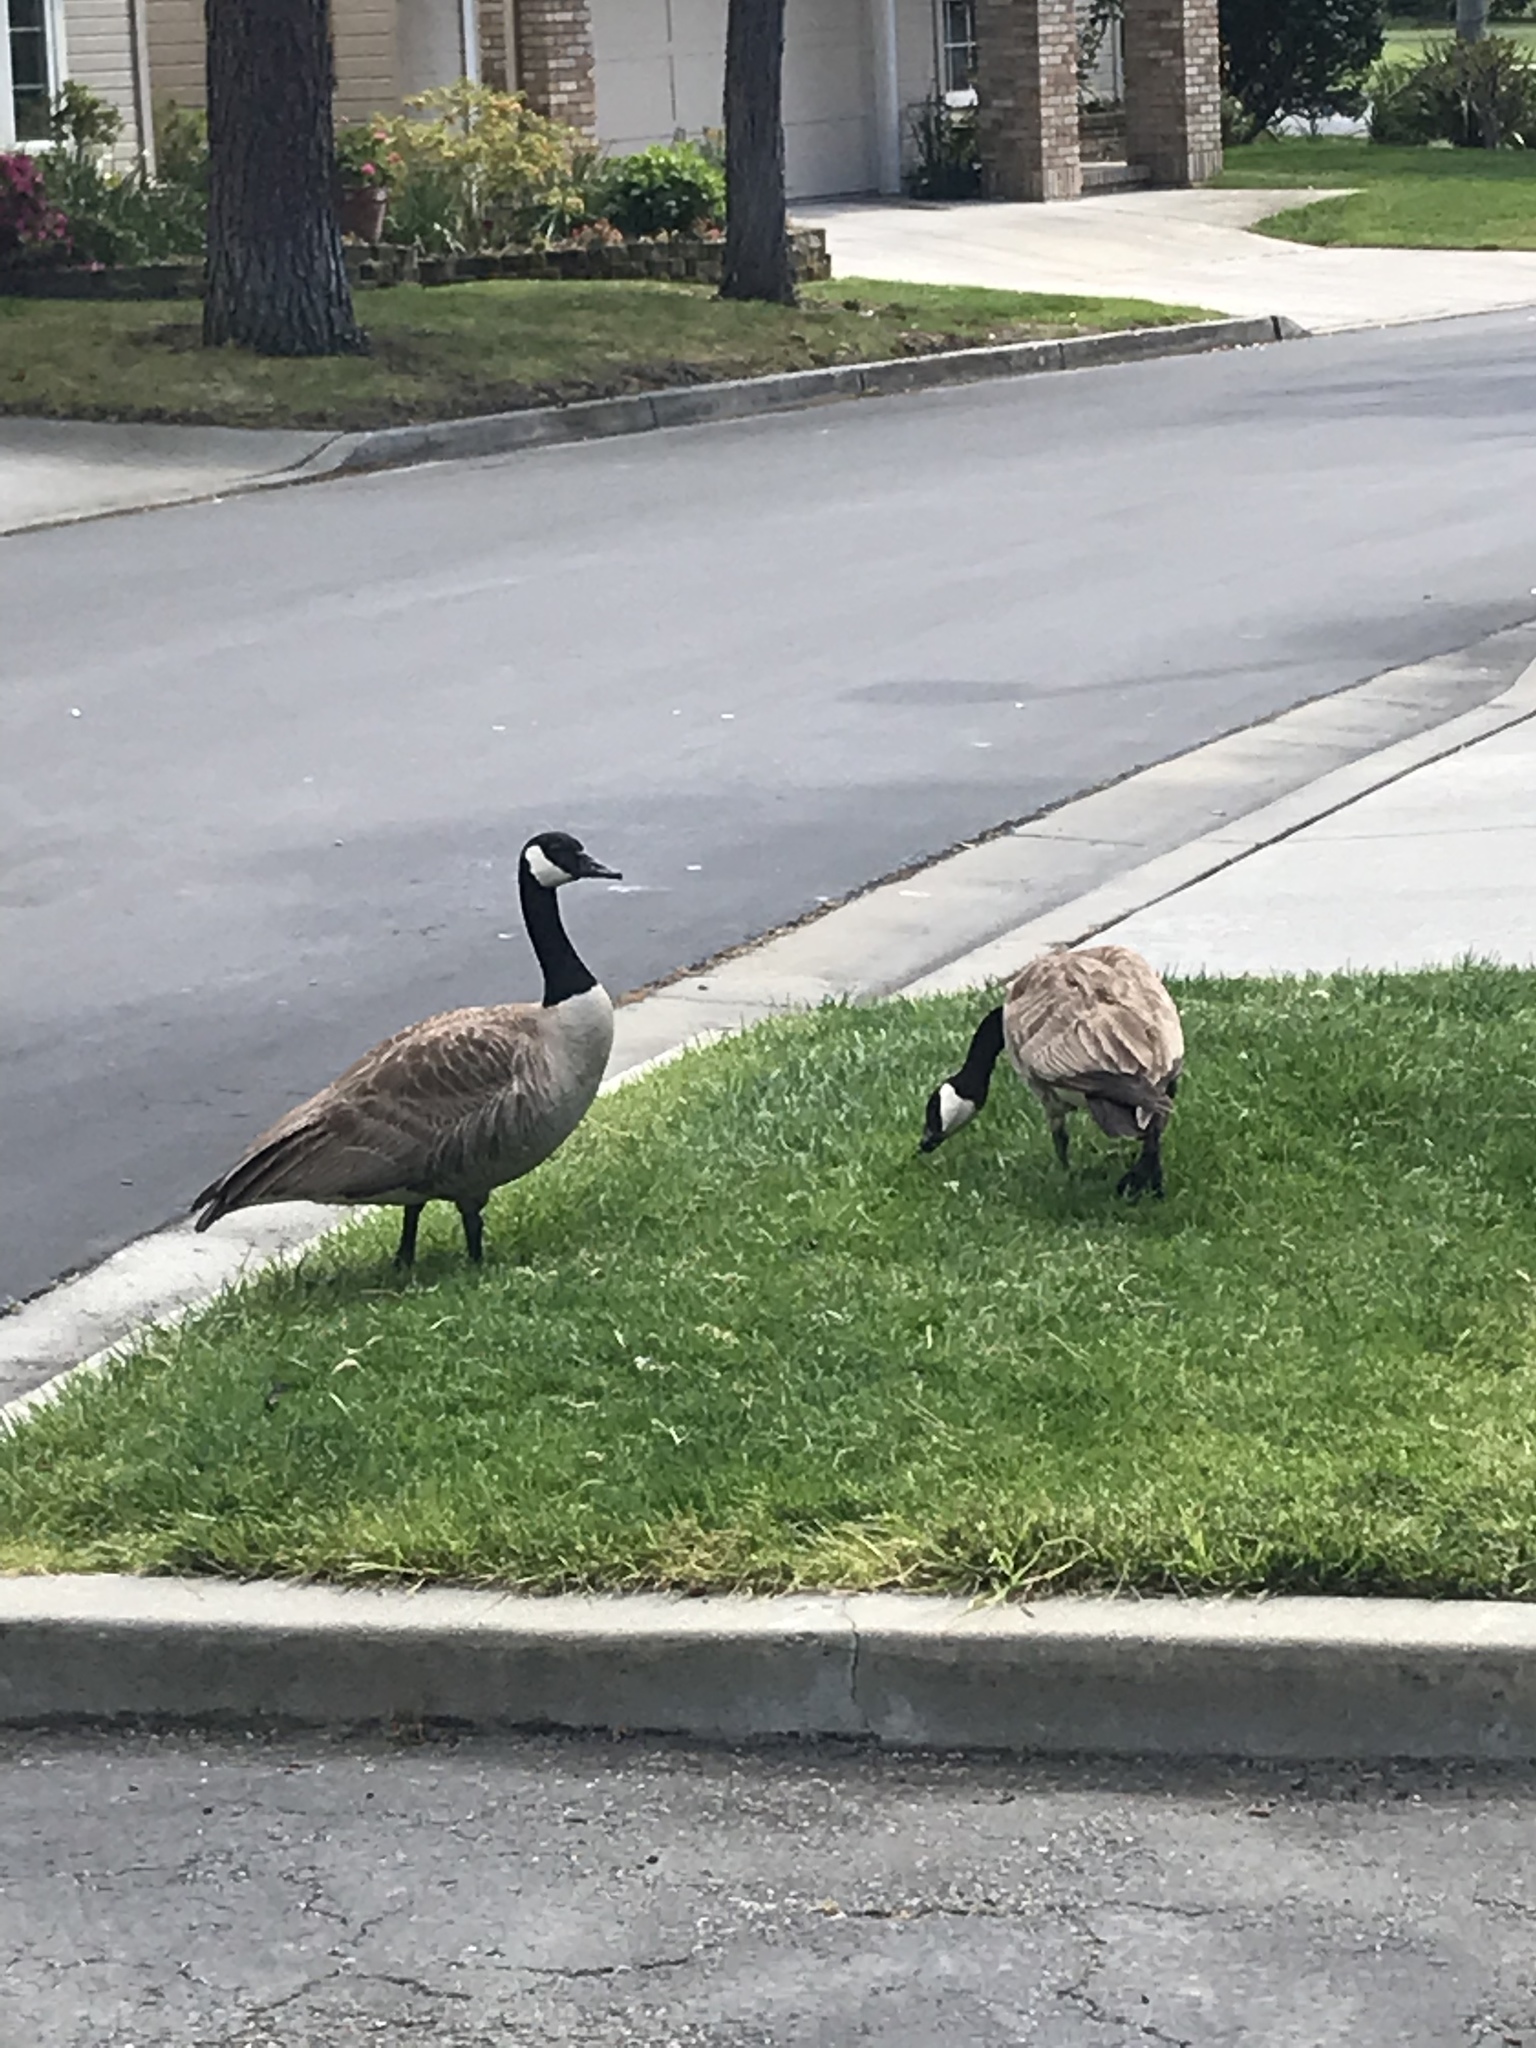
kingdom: Animalia
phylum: Chordata
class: Aves
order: Anseriformes
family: Anatidae
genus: Branta
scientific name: Branta canadensis
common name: Canada goose
